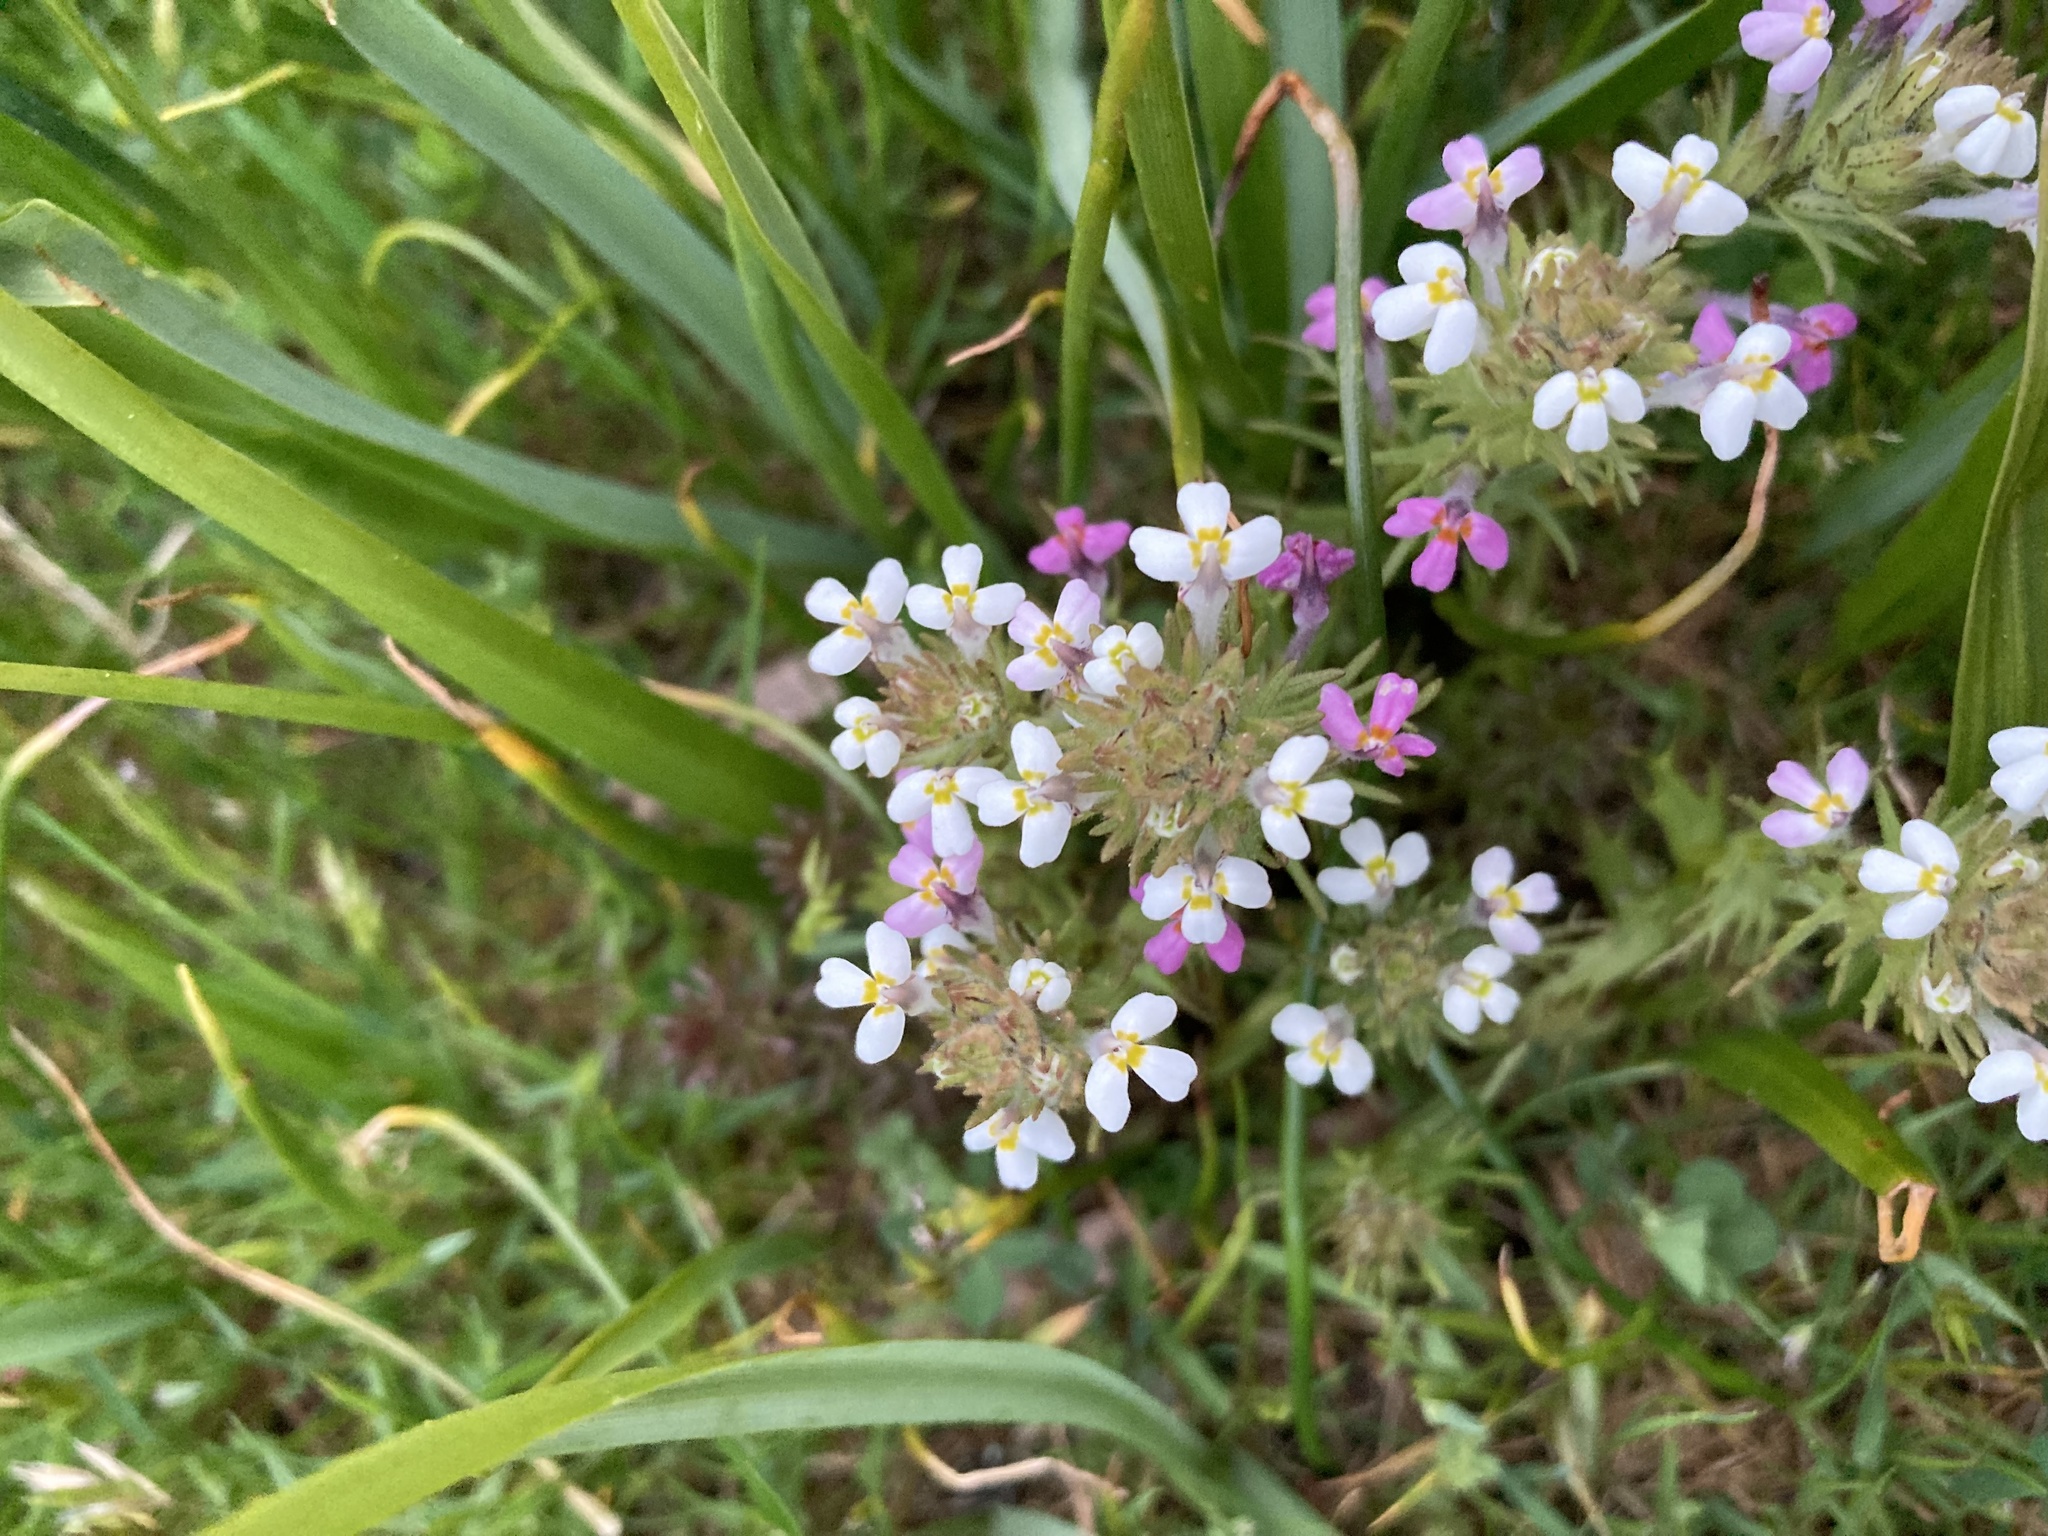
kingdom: Plantae
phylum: Tracheophyta
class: Magnoliopsida
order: Lamiales
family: Orobanchaceae
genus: Triphysaria
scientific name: Triphysaria versicolor
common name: Bearded false owl-clover
